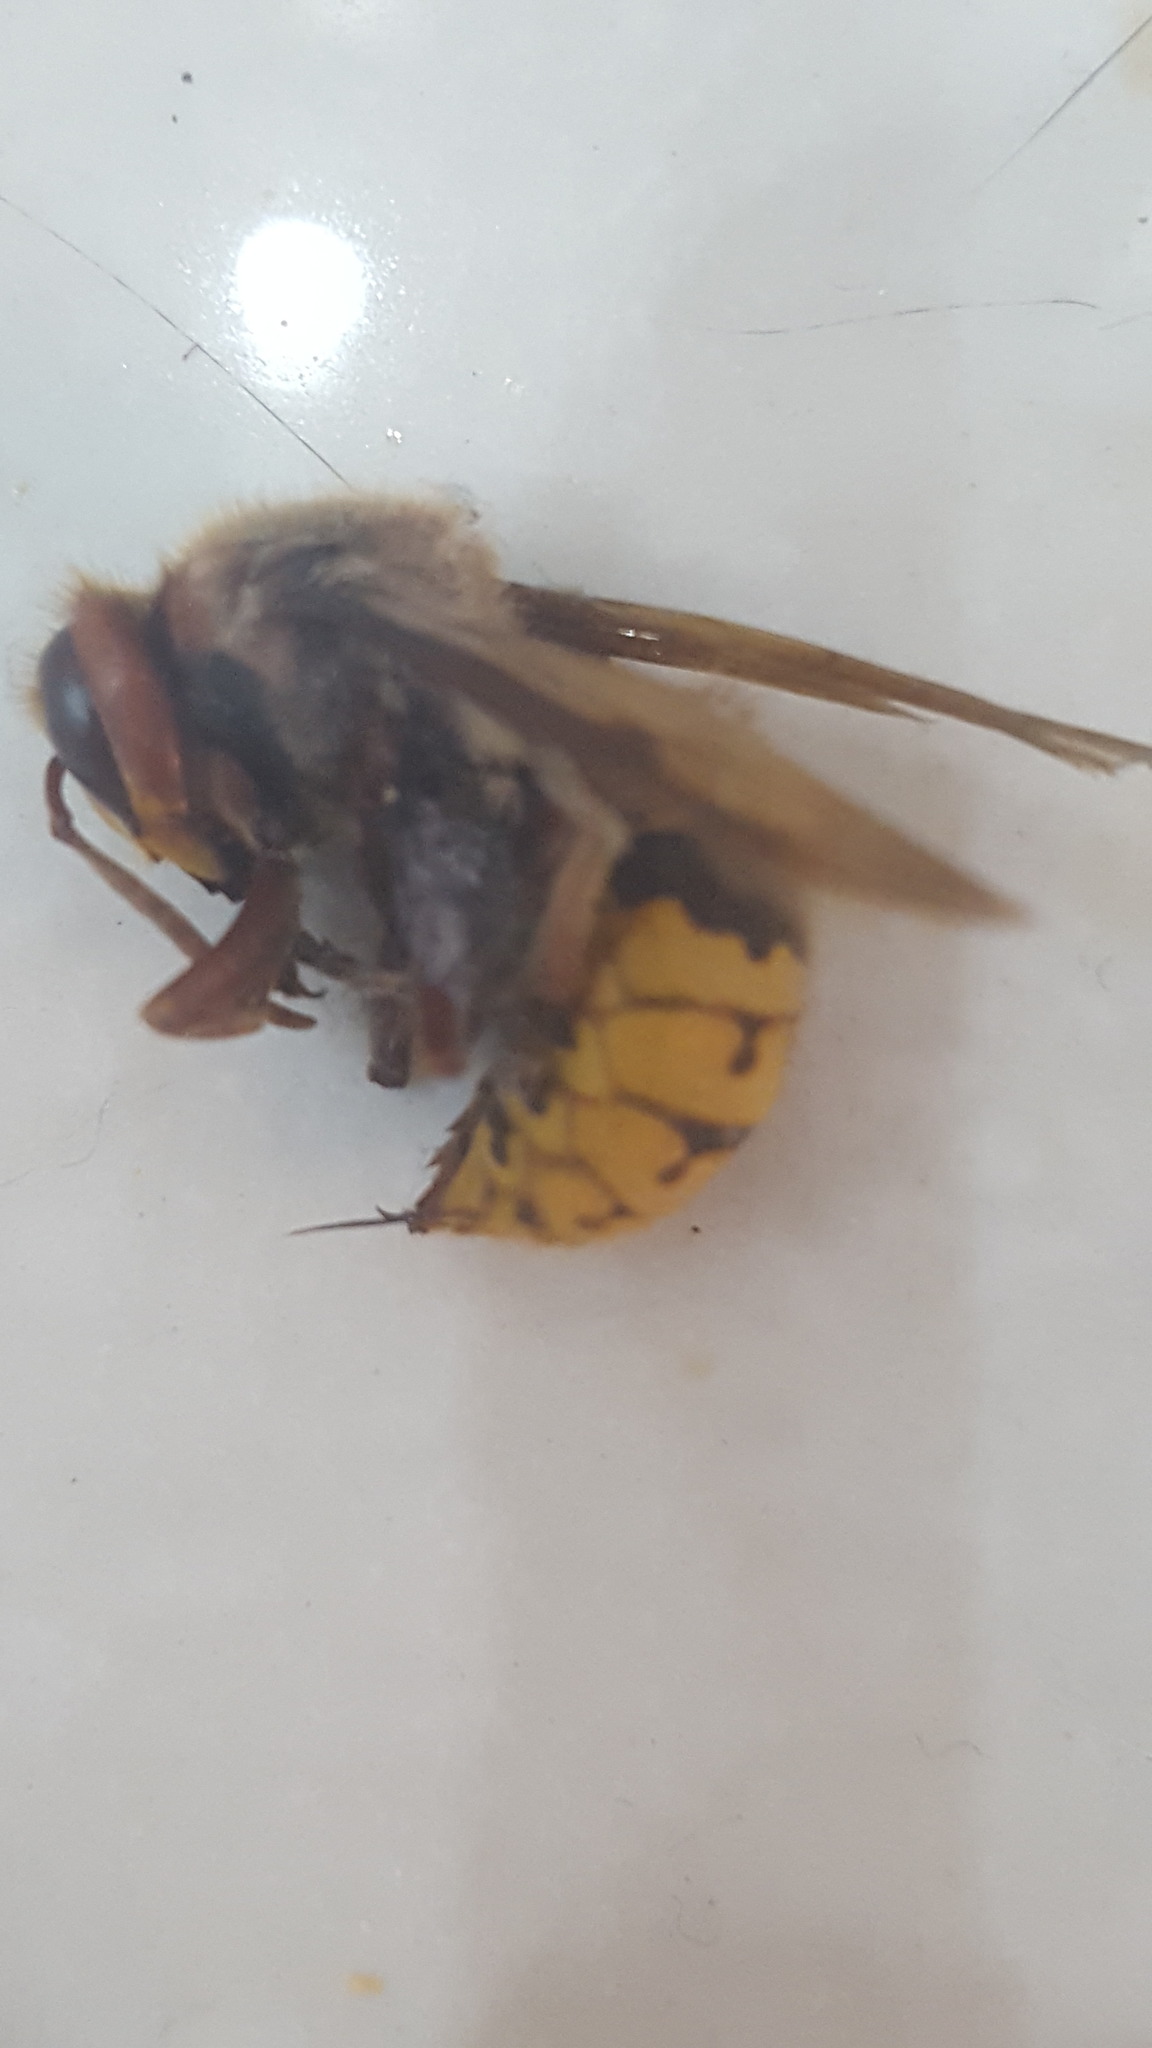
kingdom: Animalia
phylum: Arthropoda
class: Insecta
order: Hymenoptera
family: Vespidae
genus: Vespa
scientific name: Vespa crabro
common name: Hornet
